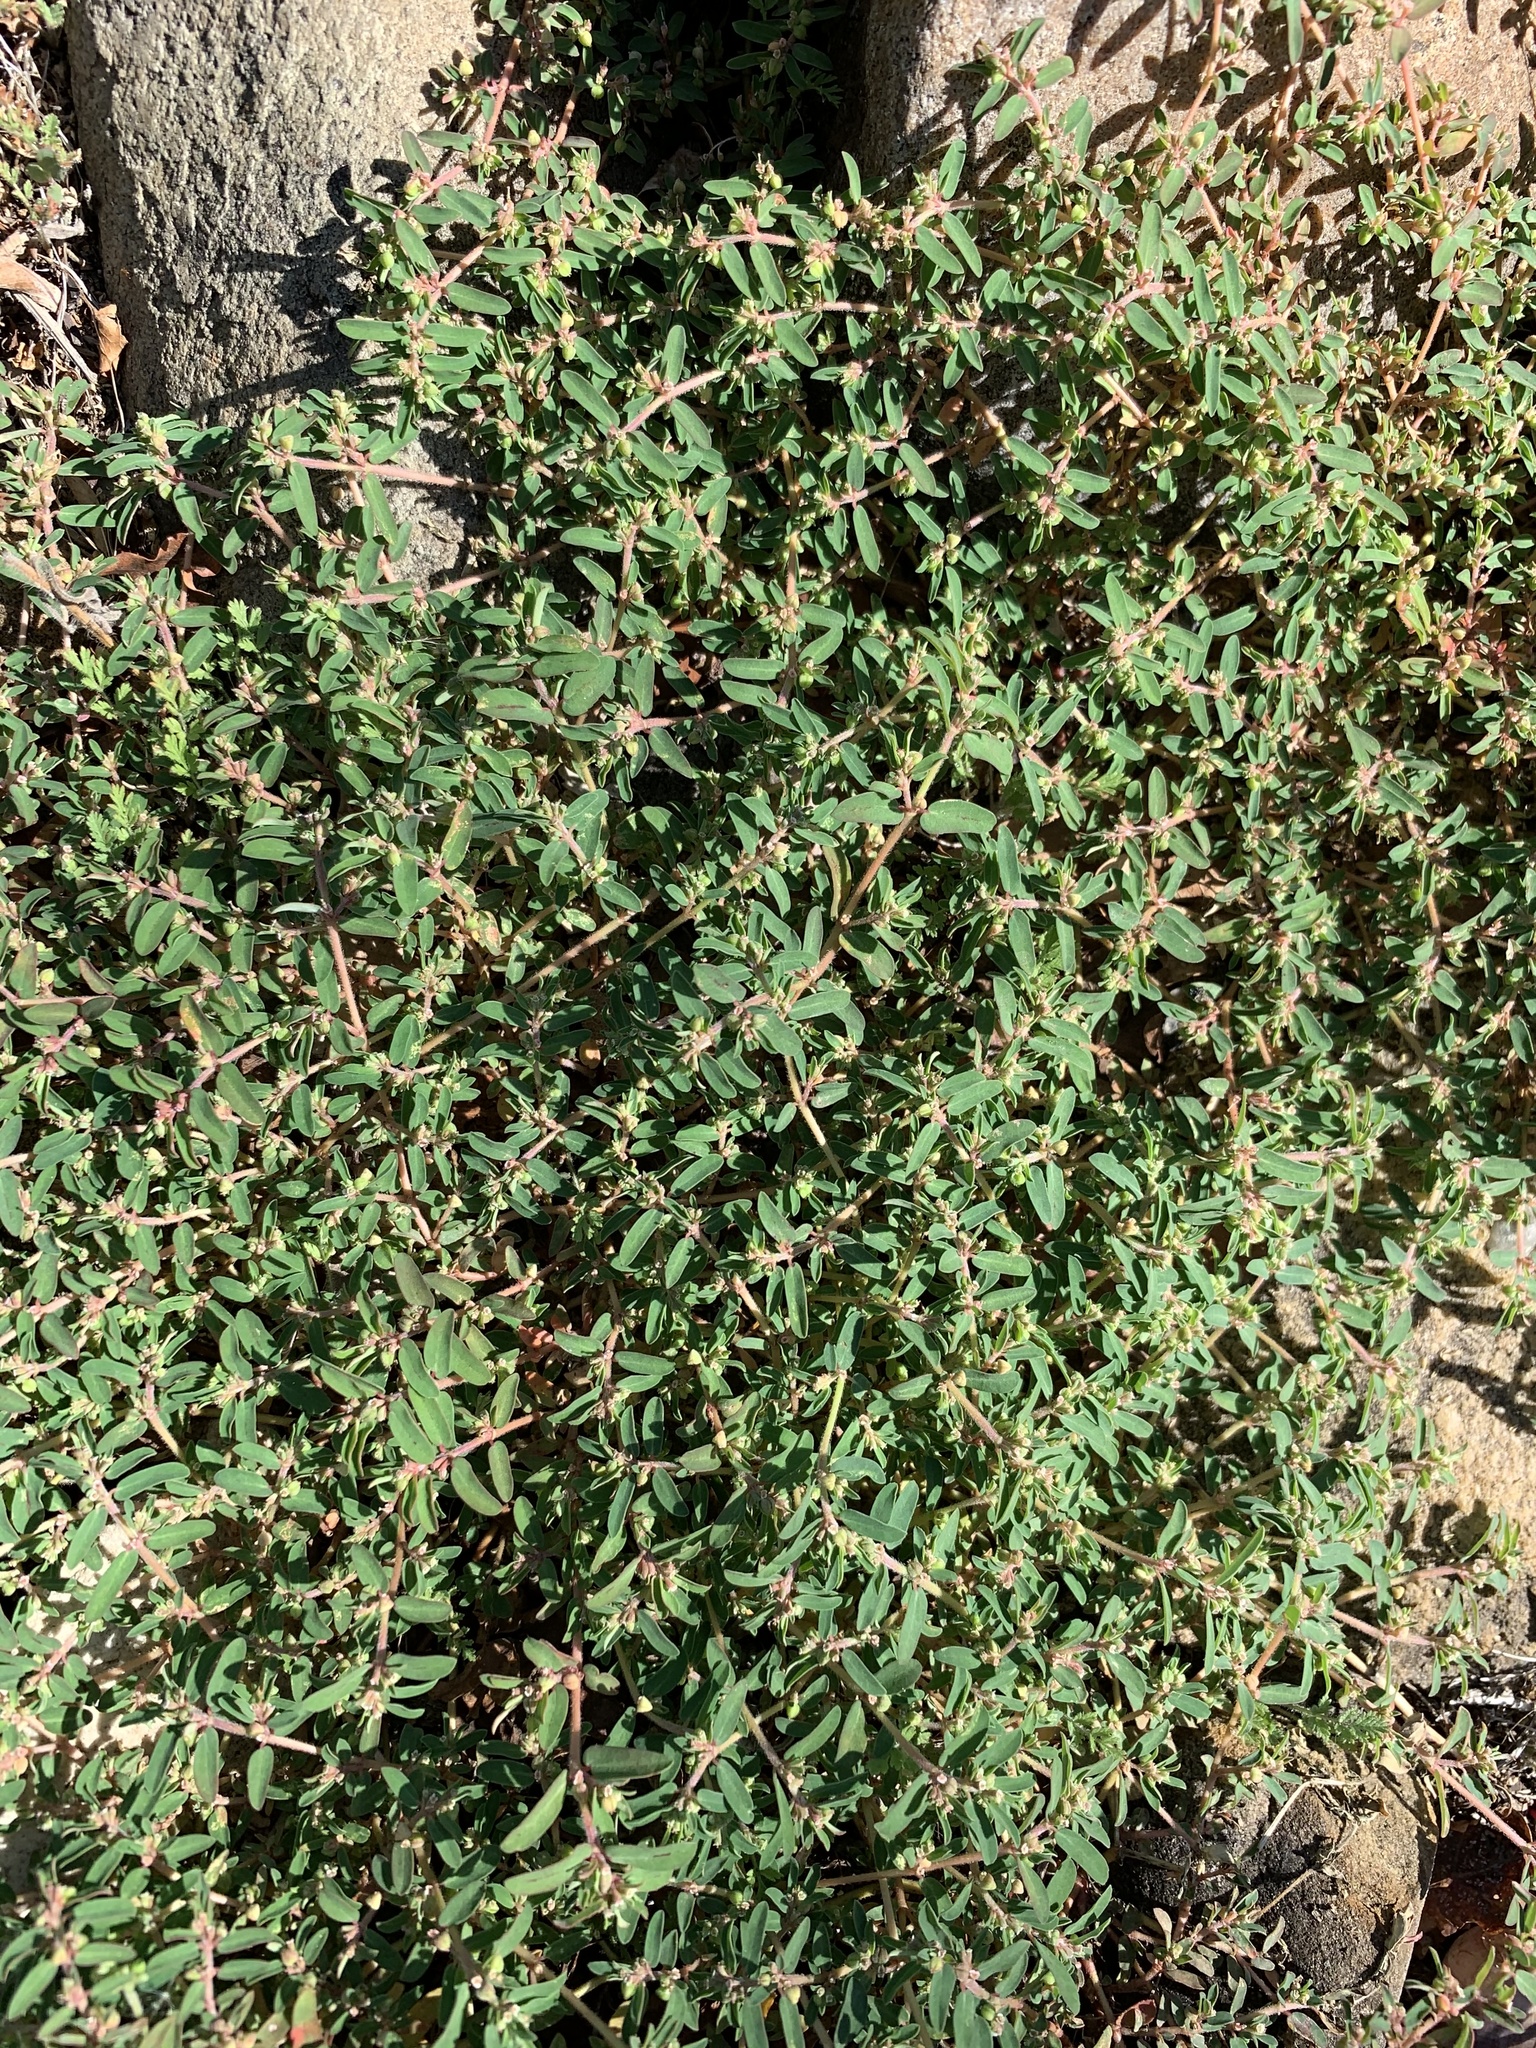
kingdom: Plantae
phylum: Tracheophyta
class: Magnoliopsida
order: Malpighiales
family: Euphorbiaceae
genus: Euphorbia
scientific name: Euphorbia maculata
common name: Spotted spurge
